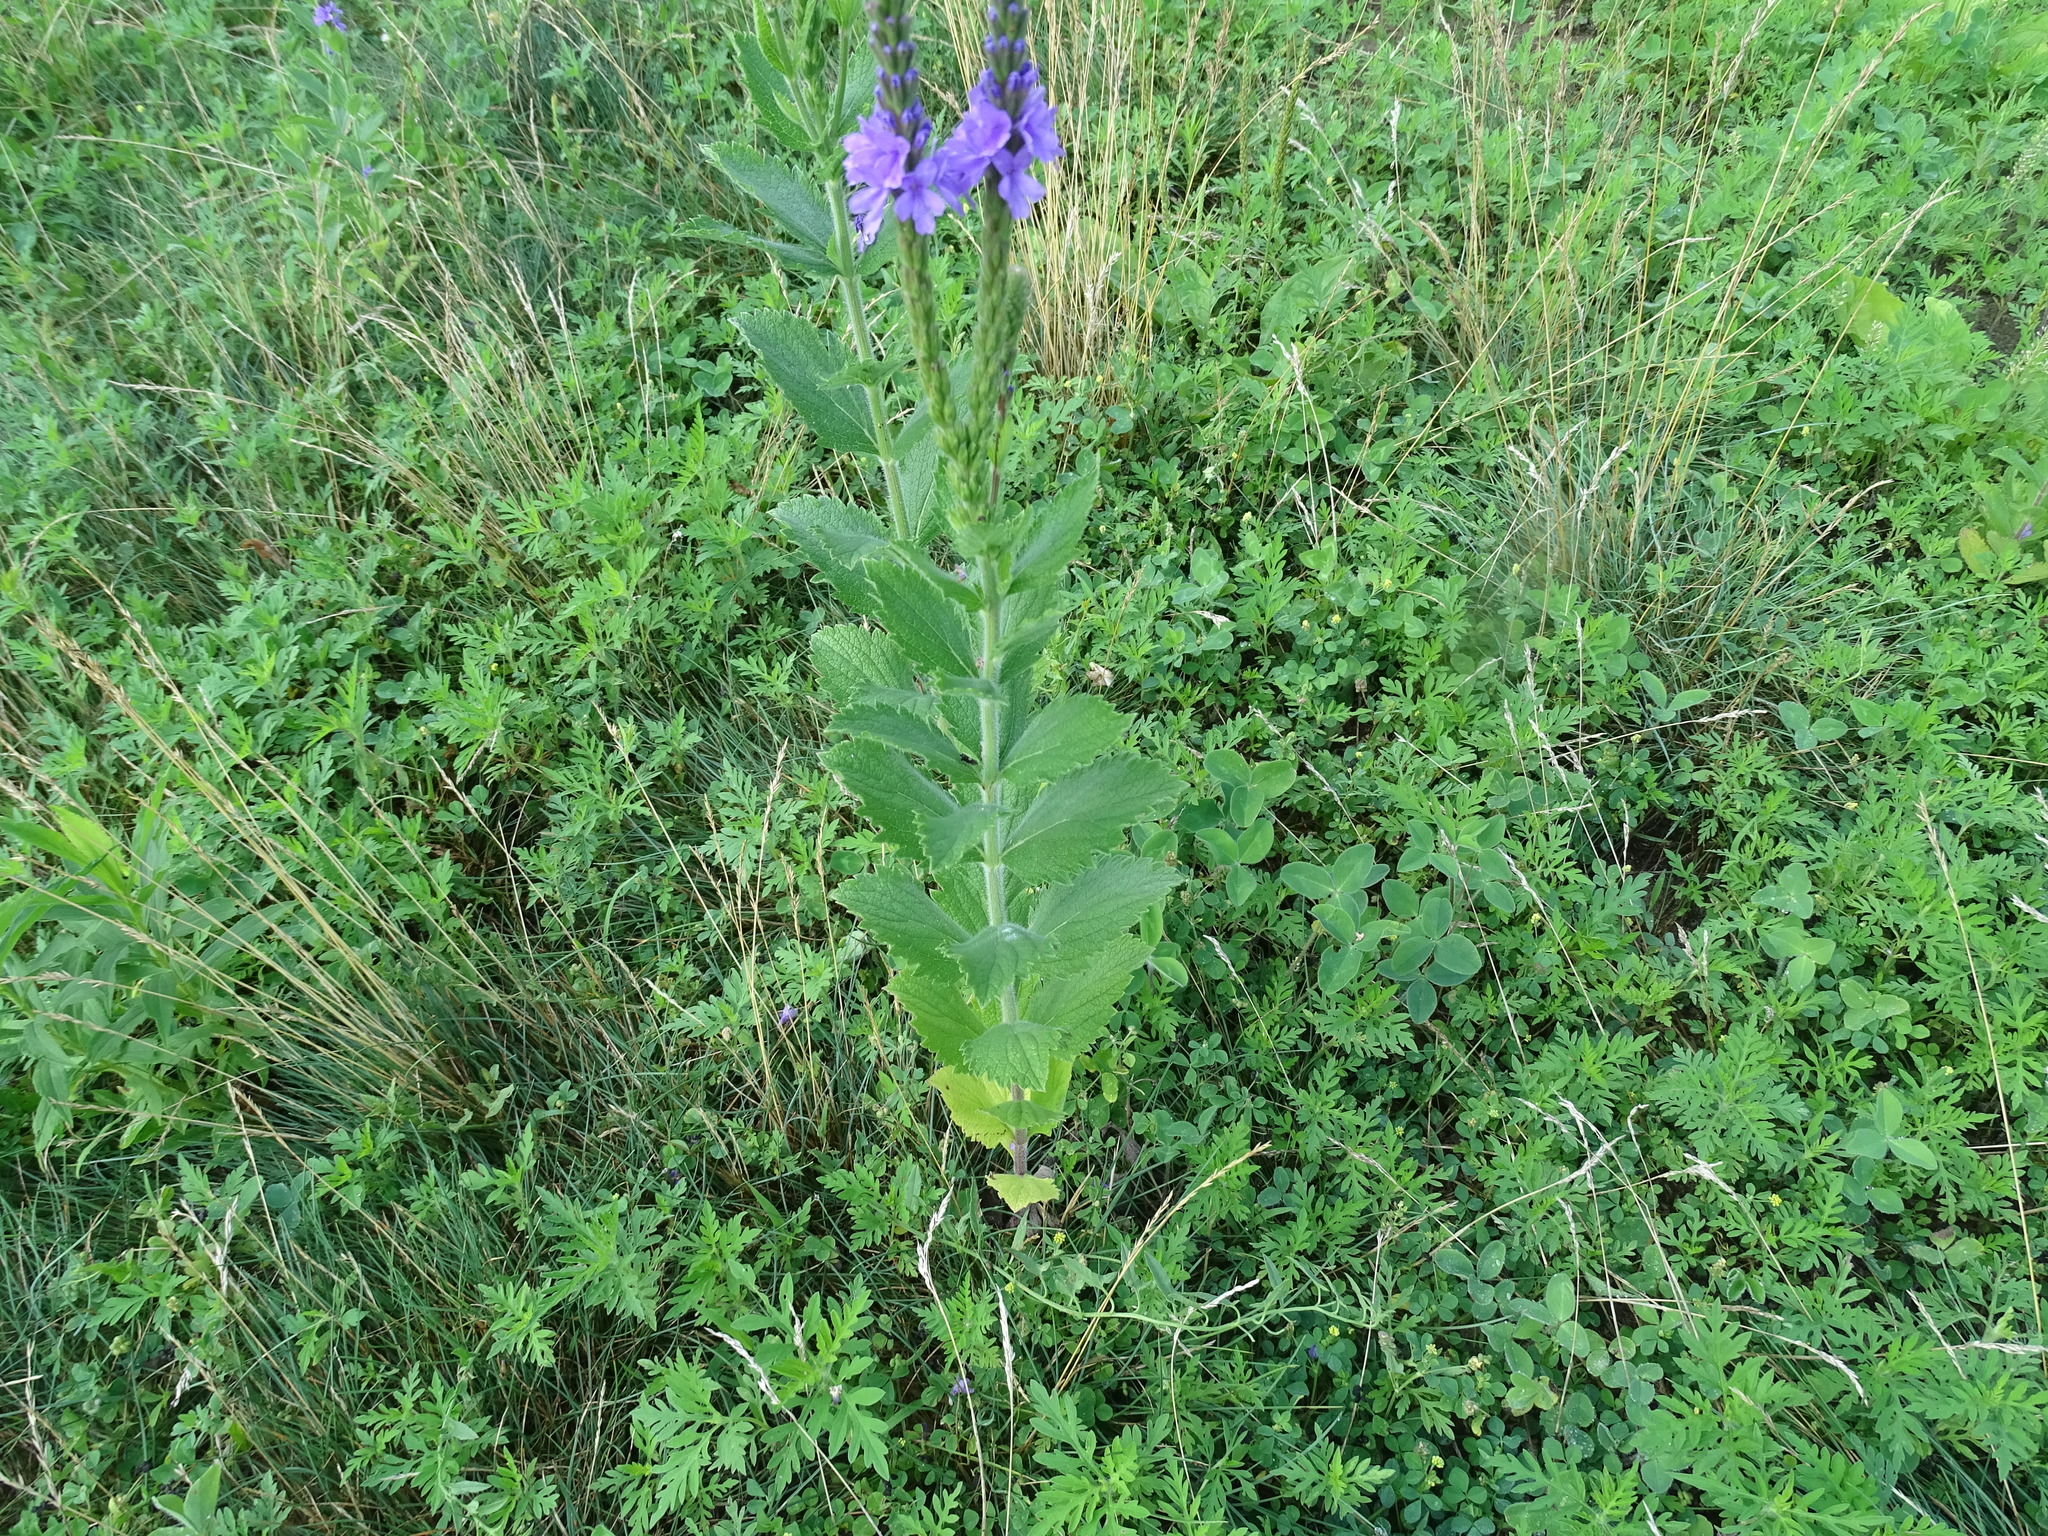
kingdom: Plantae
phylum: Tracheophyta
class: Magnoliopsida
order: Lamiales
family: Verbenaceae
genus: Verbena
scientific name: Verbena stricta
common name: Hoary vervain
